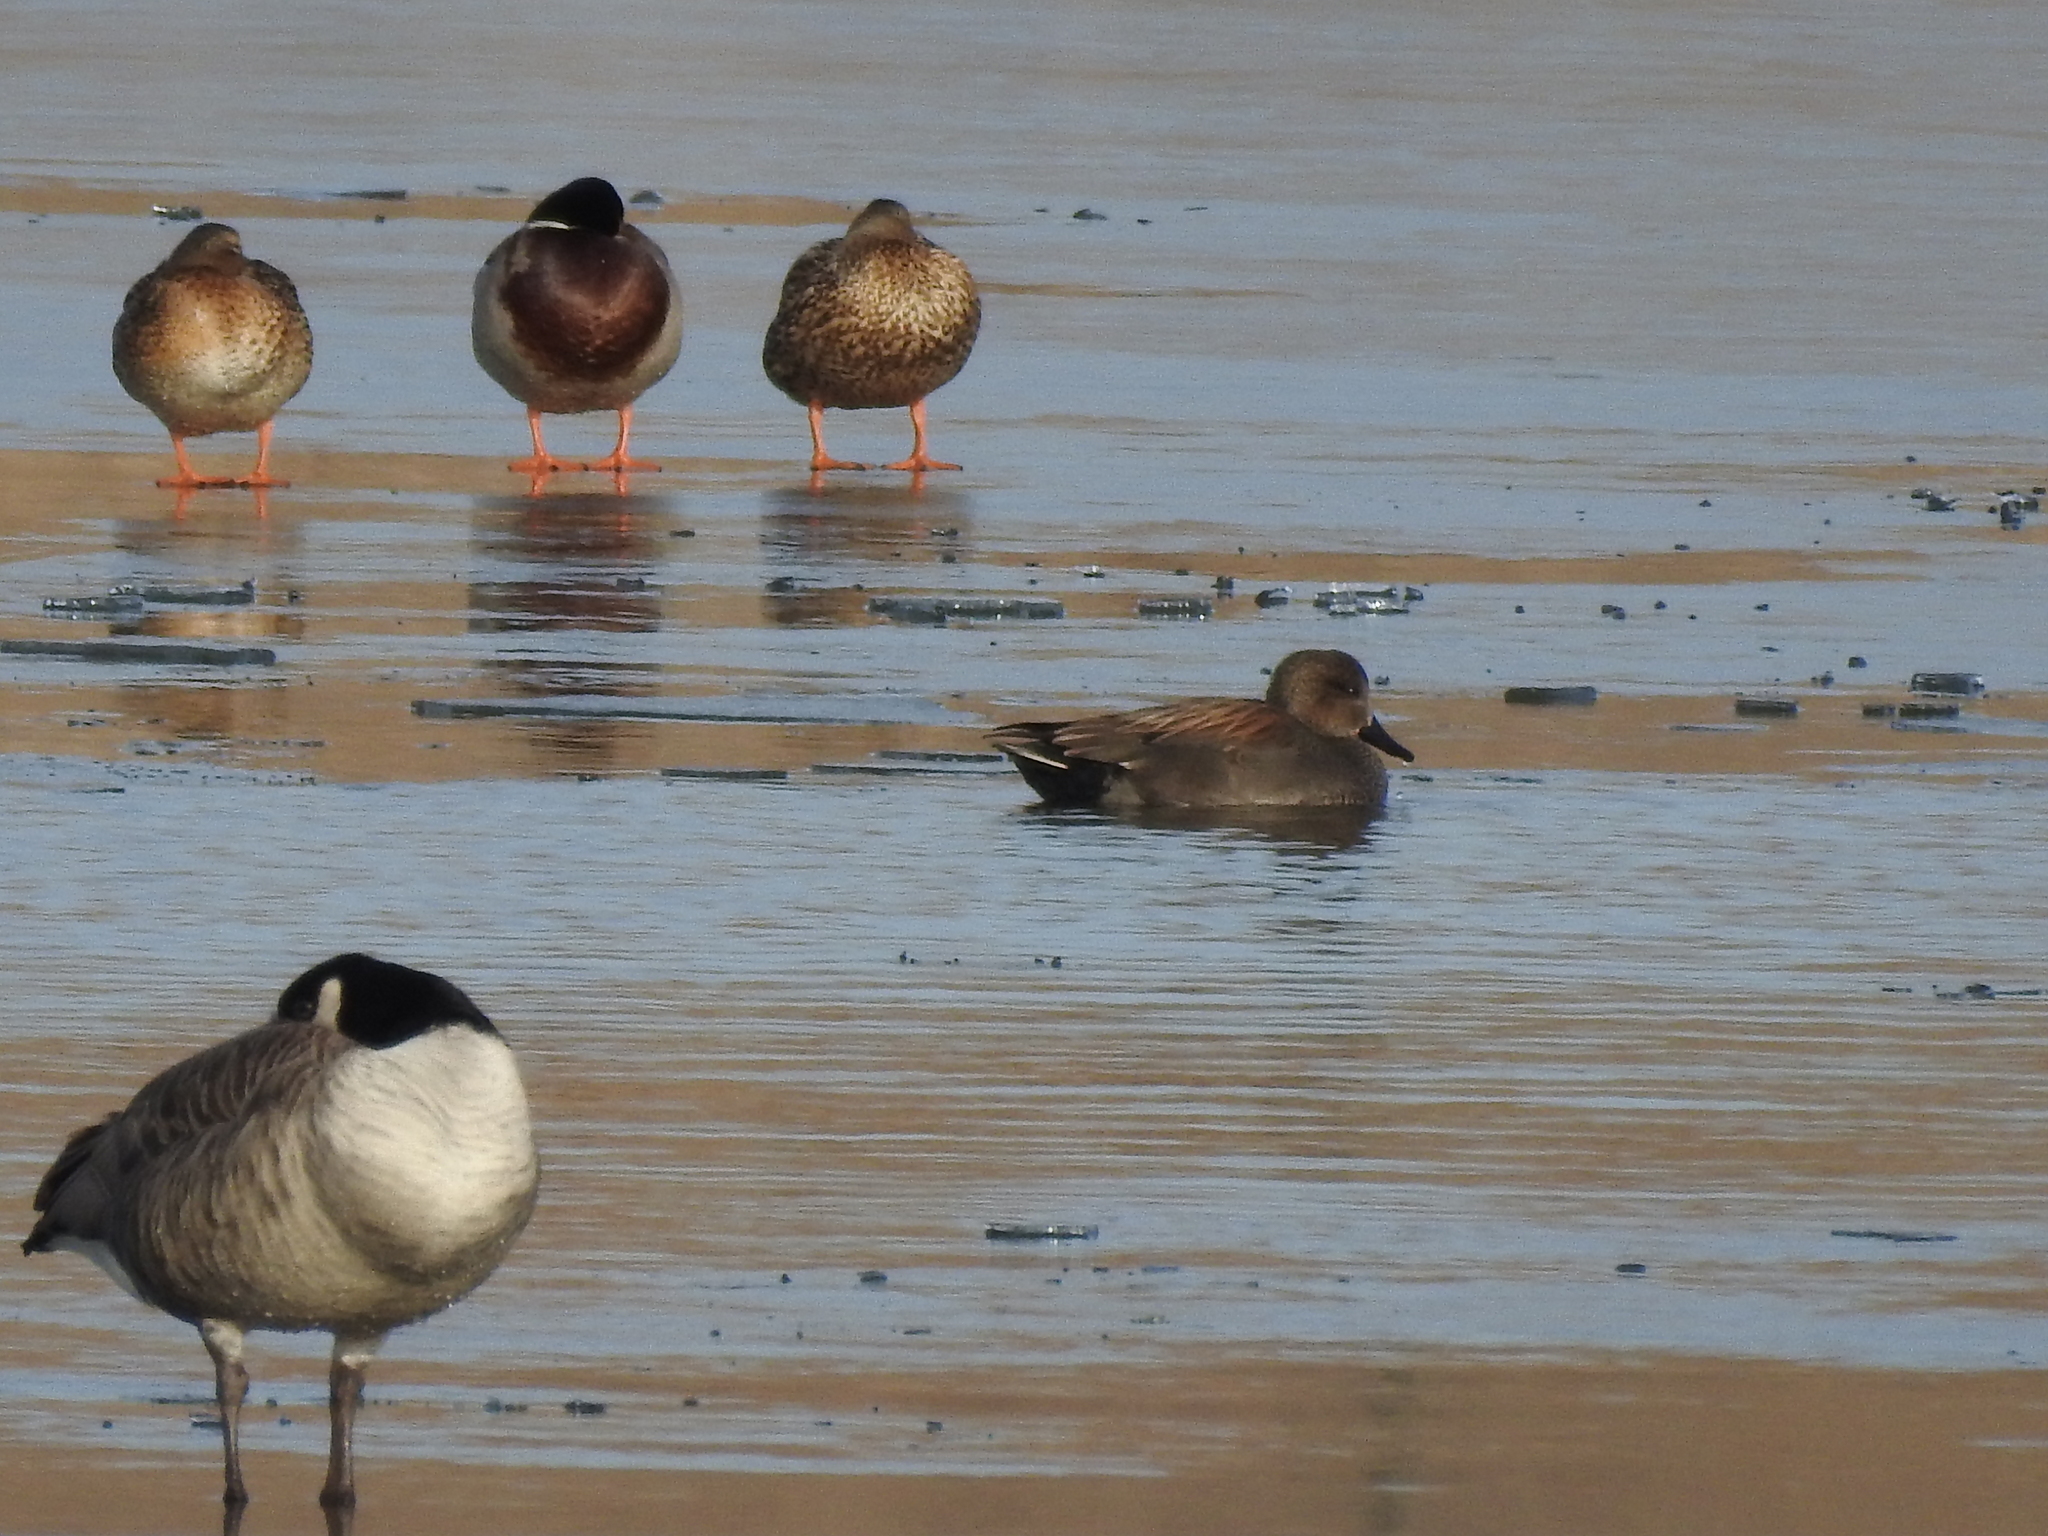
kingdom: Animalia
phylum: Chordata
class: Aves
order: Anseriformes
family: Anatidae
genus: Mareca
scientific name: Mareca strepera
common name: Gadwall
